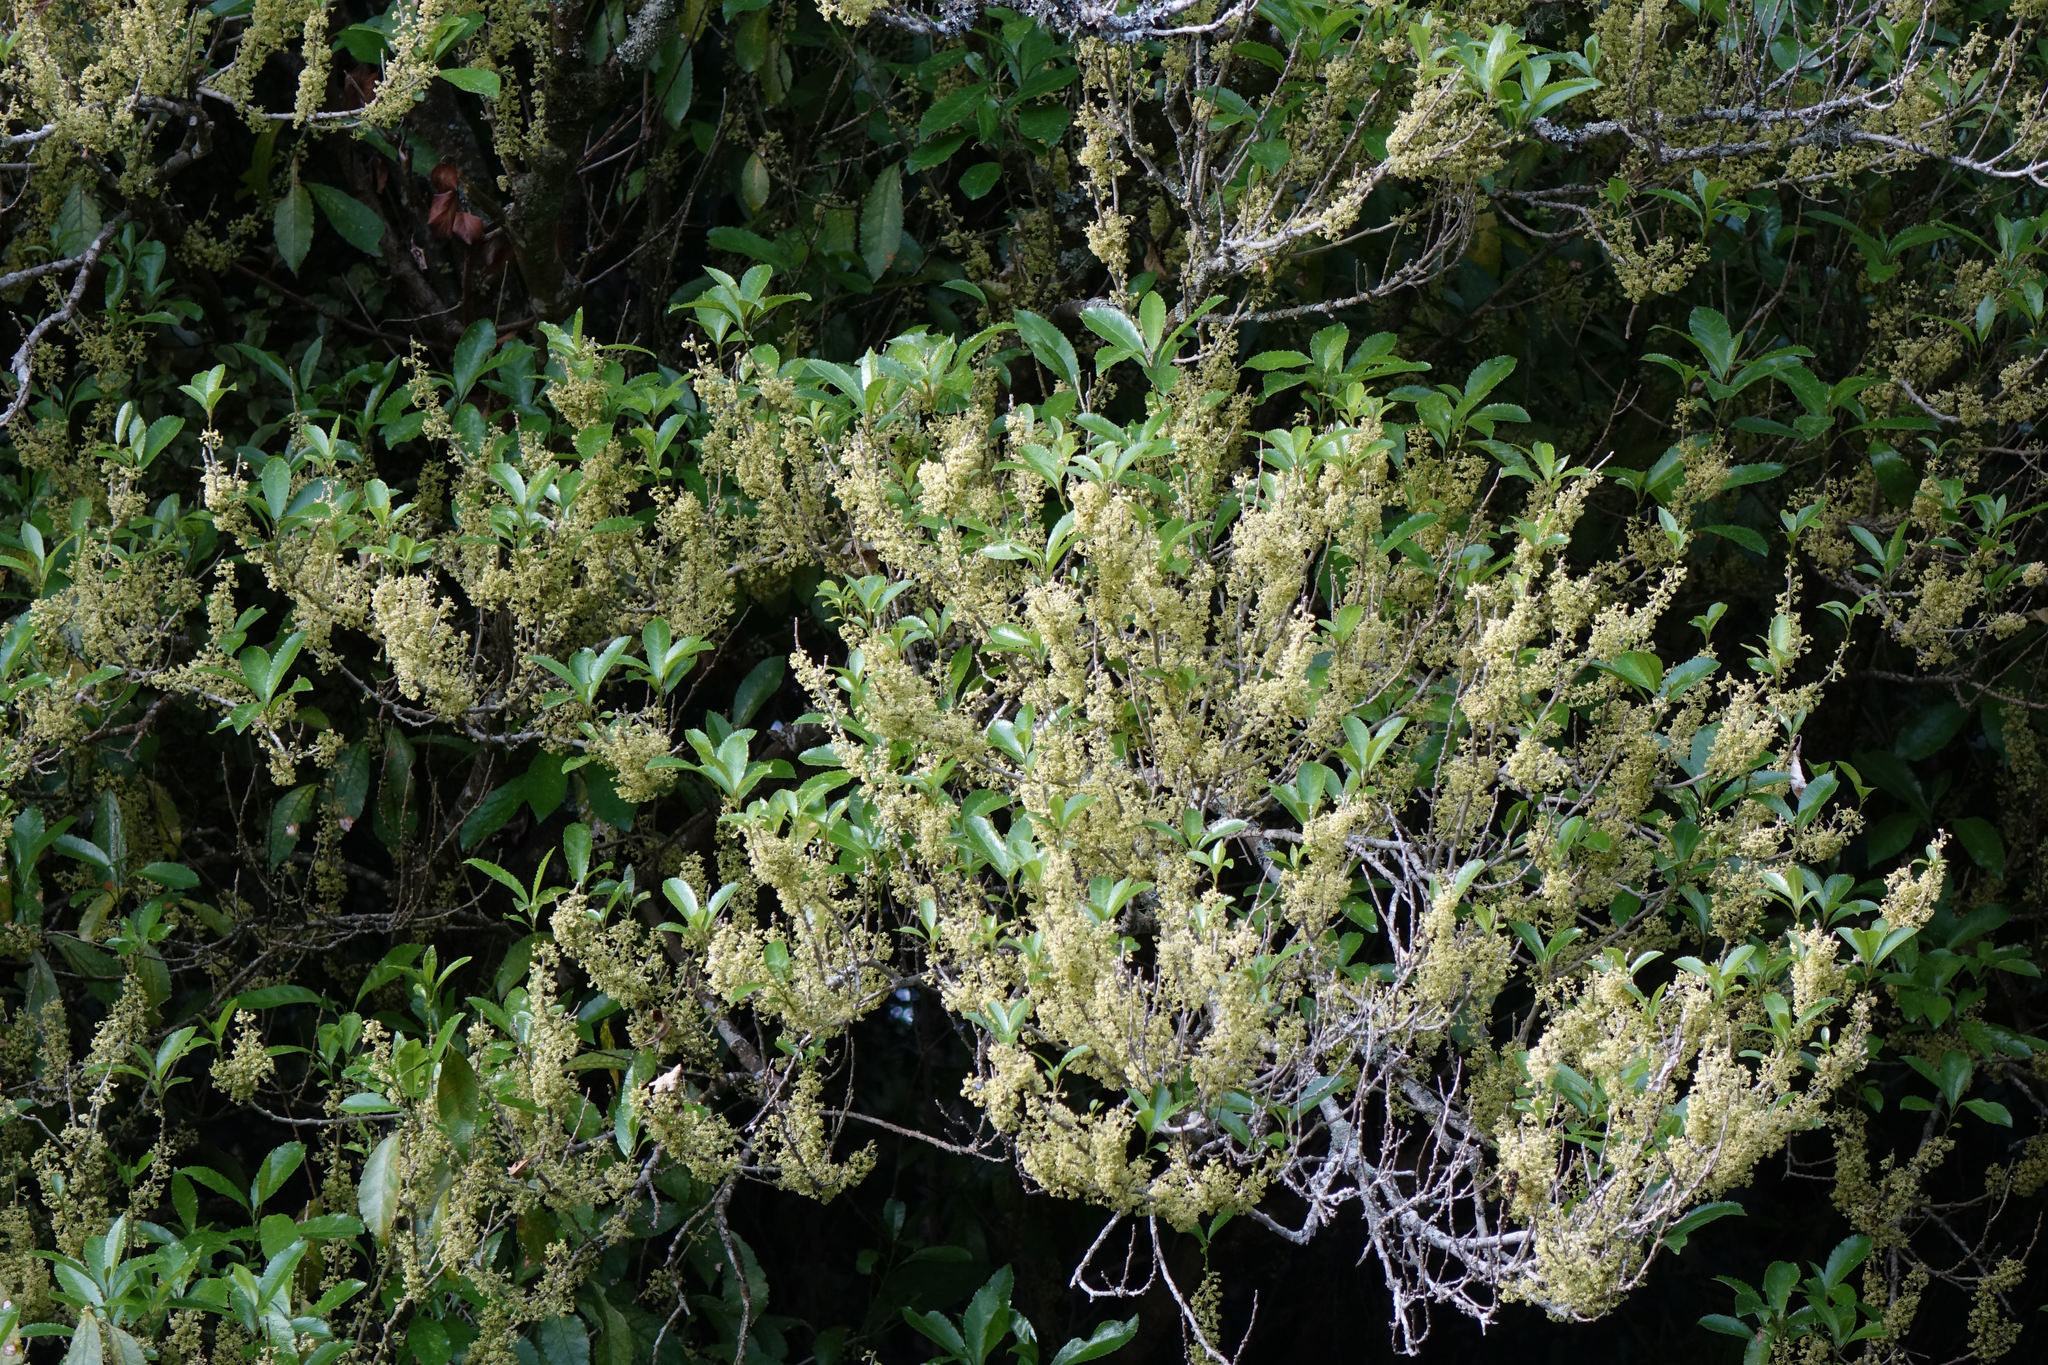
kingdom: Plantae
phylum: Tracheophyta
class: Magnoliopsida
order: Malpighiales
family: Violaceae
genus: Melicytus
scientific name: Melicytus ramiflorus
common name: Mahoe
